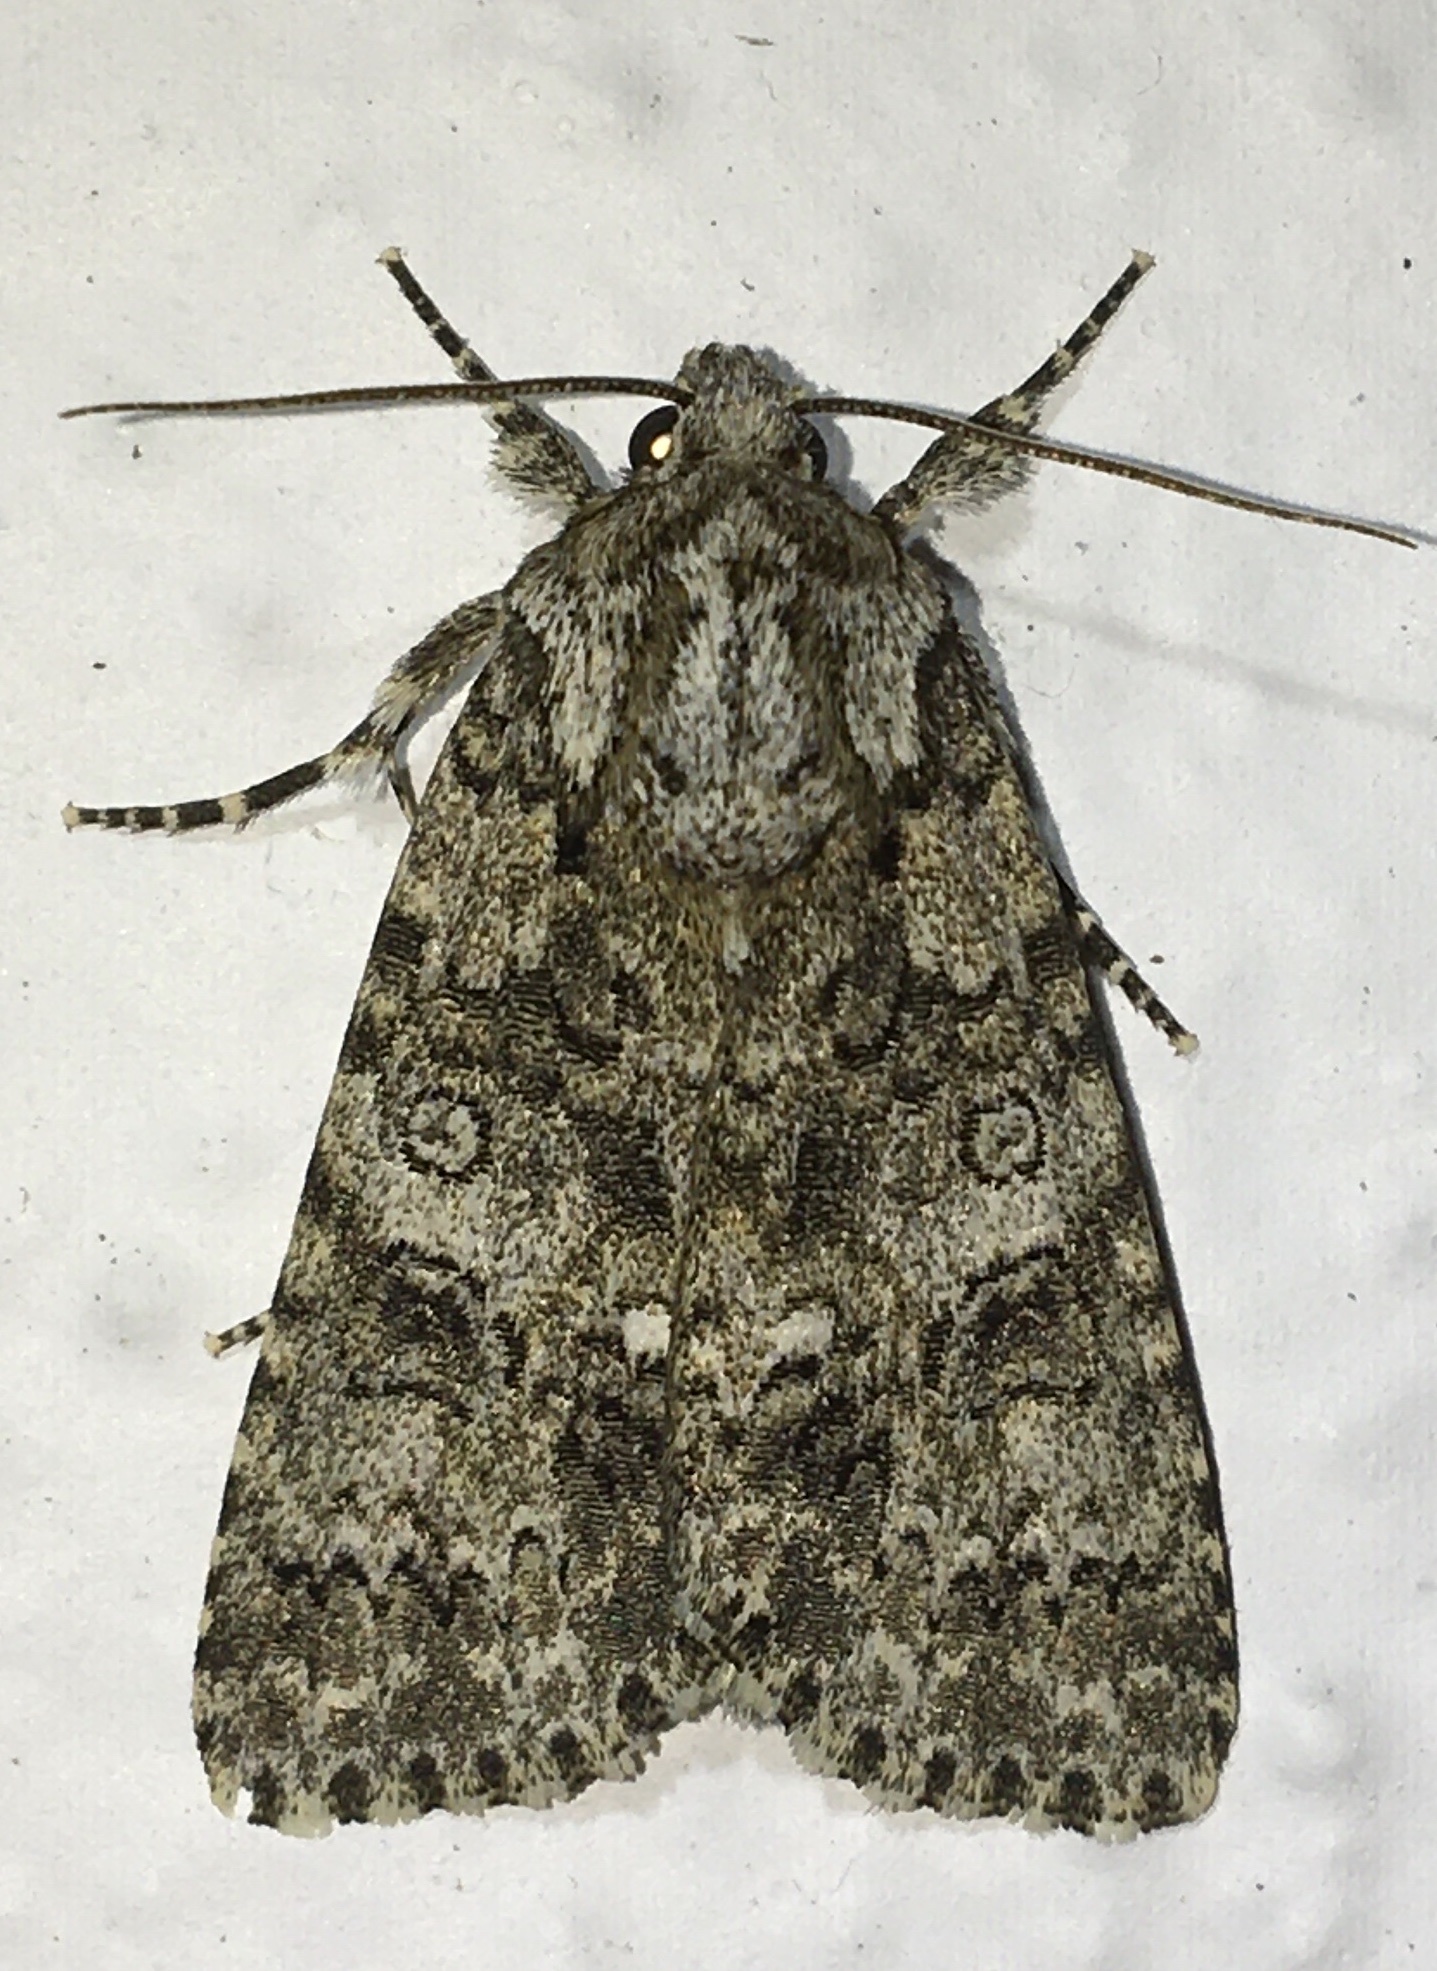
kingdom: Animalia
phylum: Arthropoda
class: Insecta
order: Lepidoptera
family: Noctuidae
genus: Acronicta
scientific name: Acronicta rumicis
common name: Knot grass
